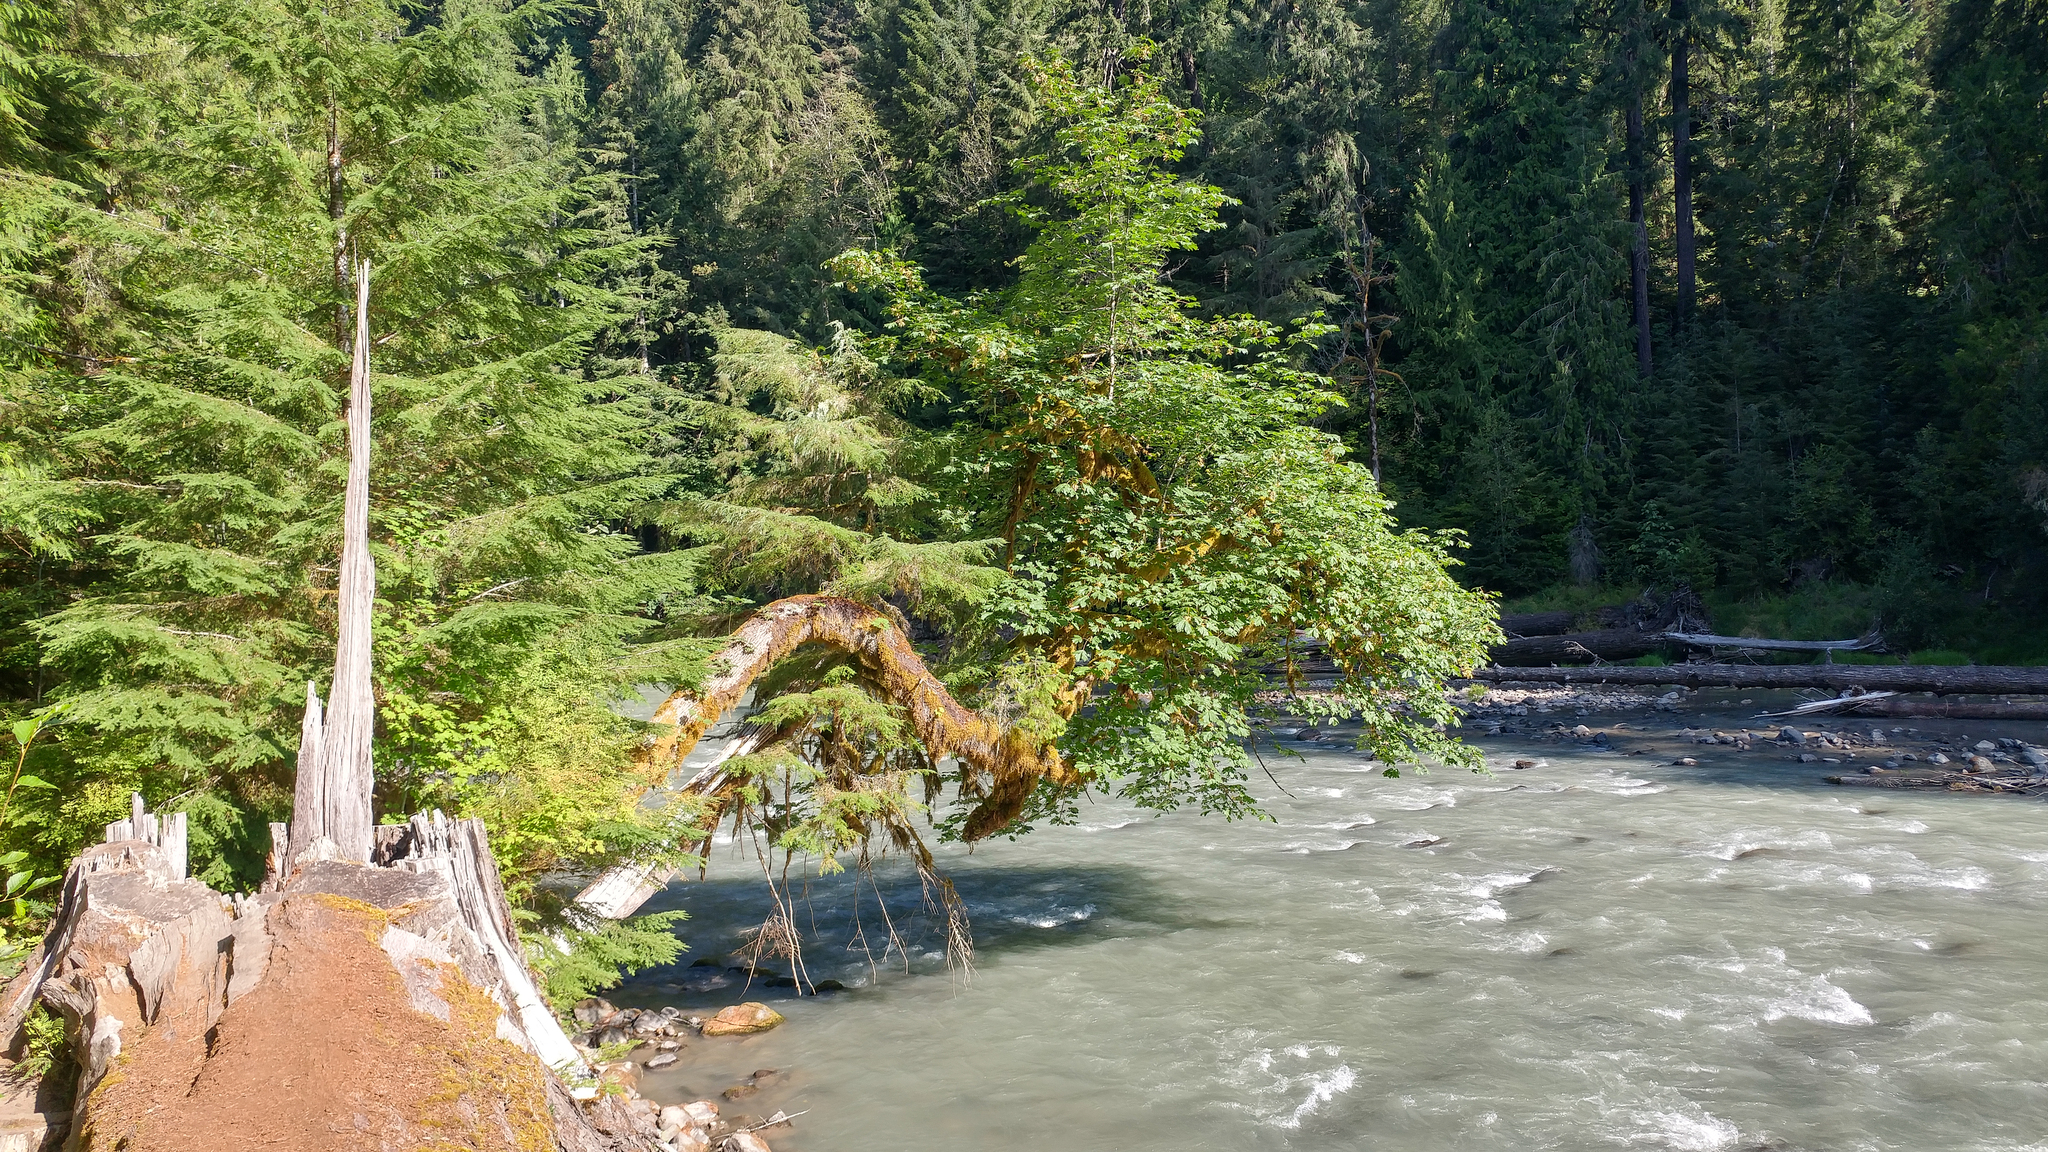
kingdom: Plantae
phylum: Tracheophyta
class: Magnoliopsida
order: Sapindales
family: Sapindaceae
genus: Acer
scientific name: Acer macrophyllum
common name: Oregon maple
